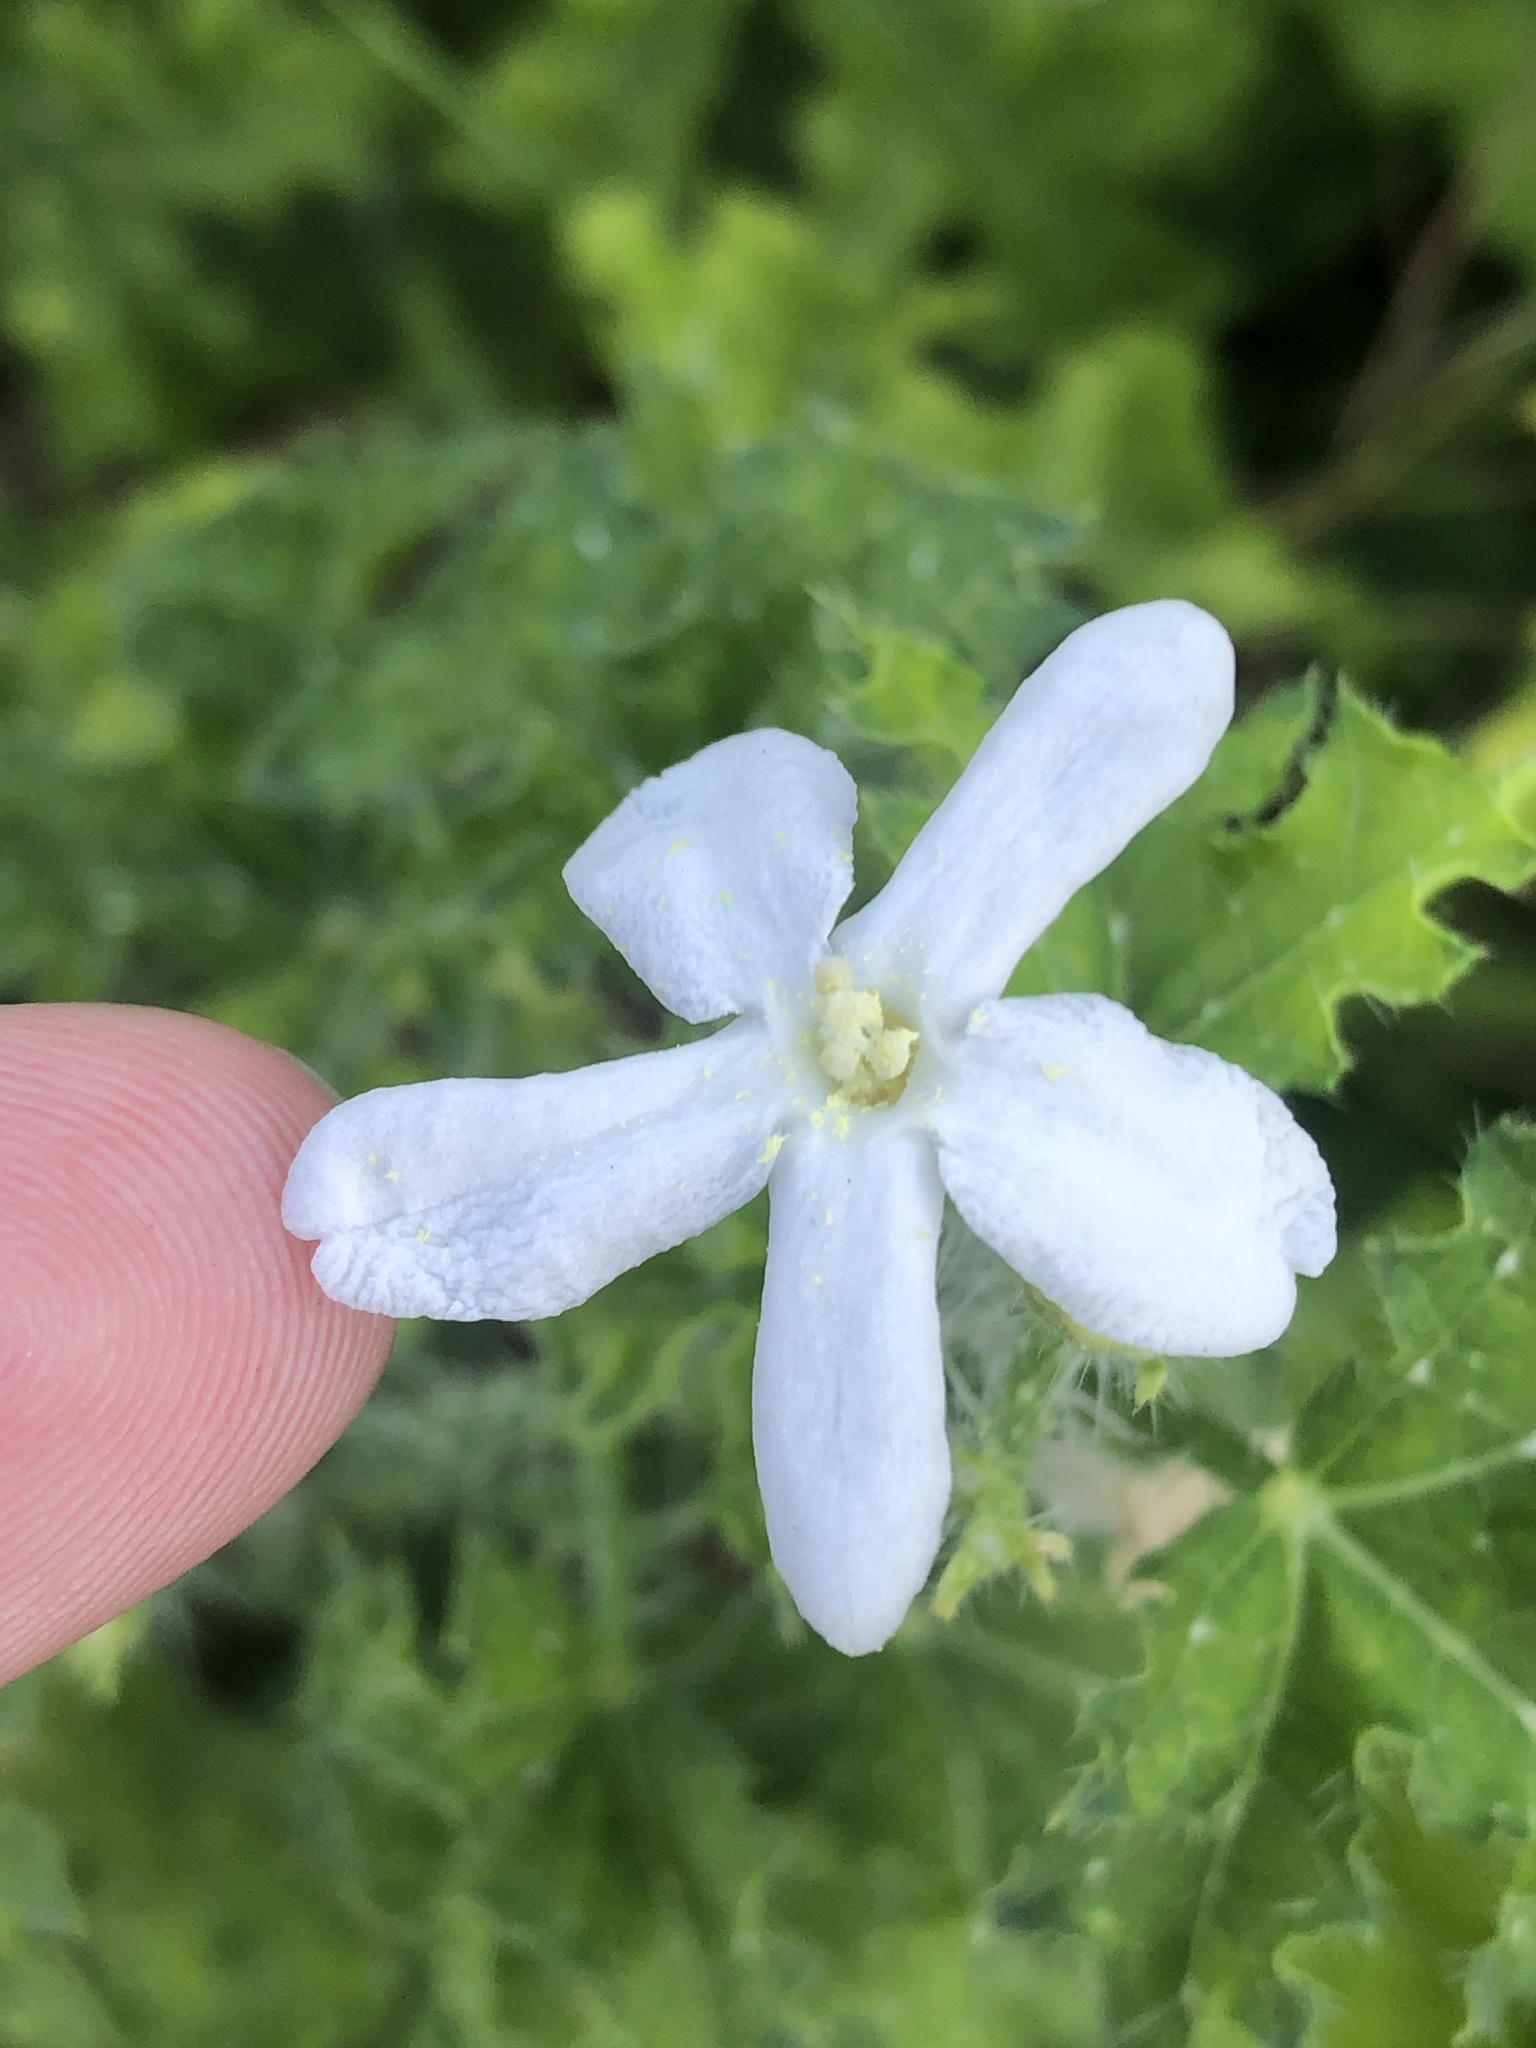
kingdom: Plantae
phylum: Tracheophyta
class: Magnoliopsida
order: Malpighiales
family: Euphorbiaceae
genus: Cnidoscolus
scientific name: Cnidoscolus texanus
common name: Texas bull-nettle
